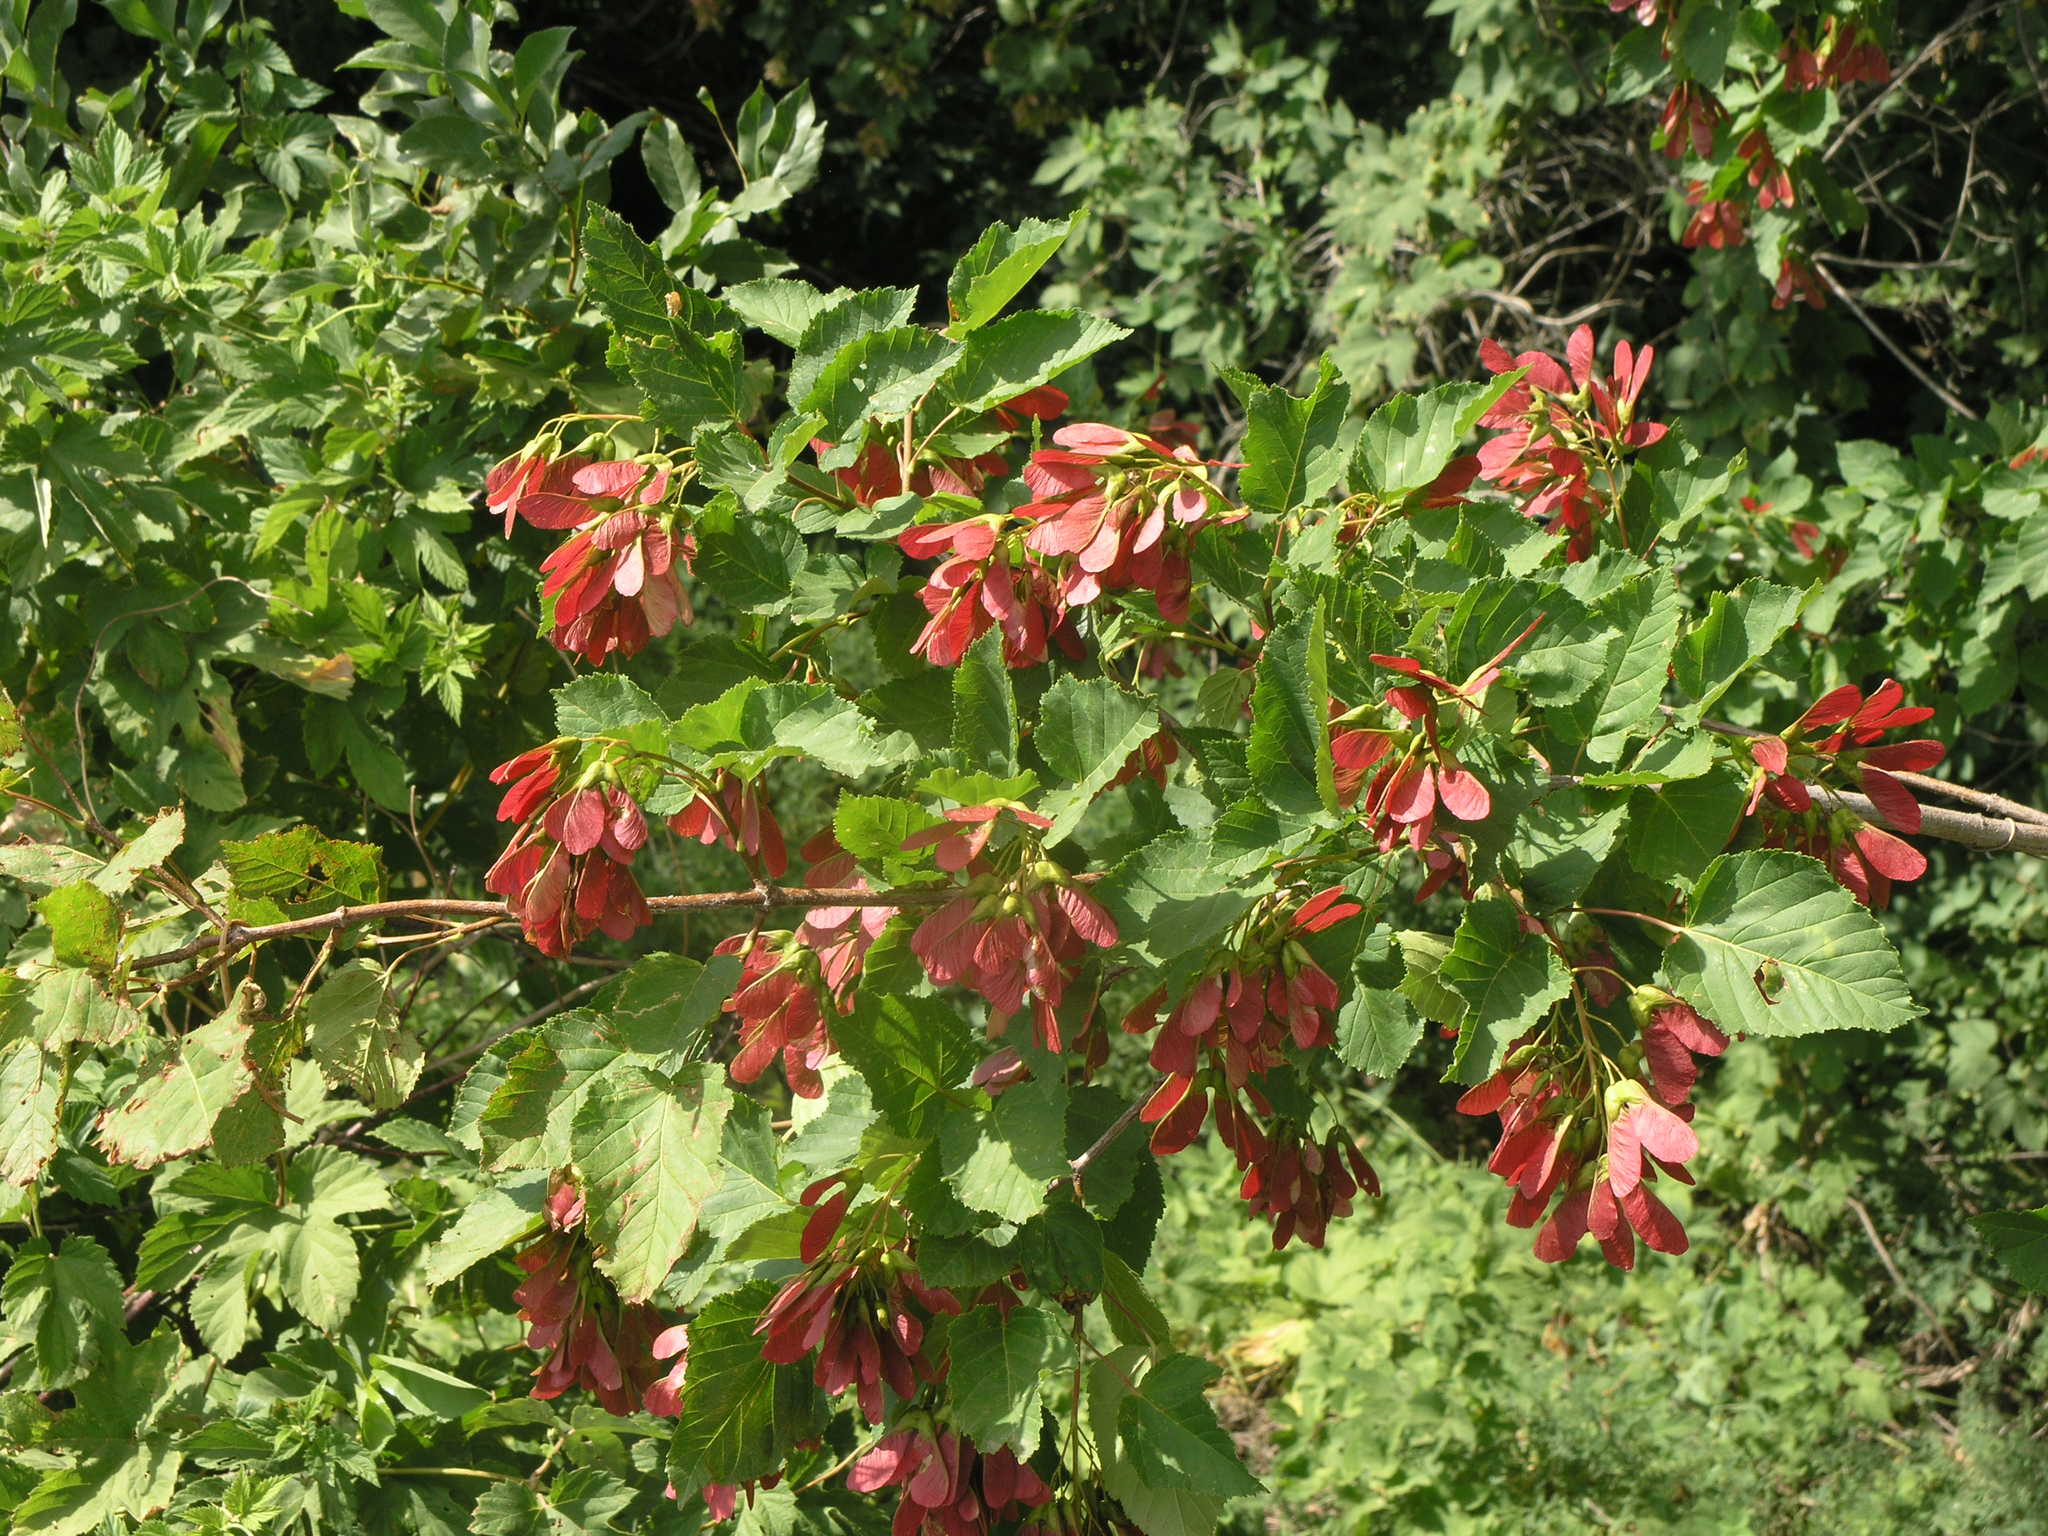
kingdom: Plantae
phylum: Tracheophyta
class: Magnoliopsida
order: Sapindales
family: Sapindaceae
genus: Acer
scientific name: Acer tataricum
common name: Tartar maple
